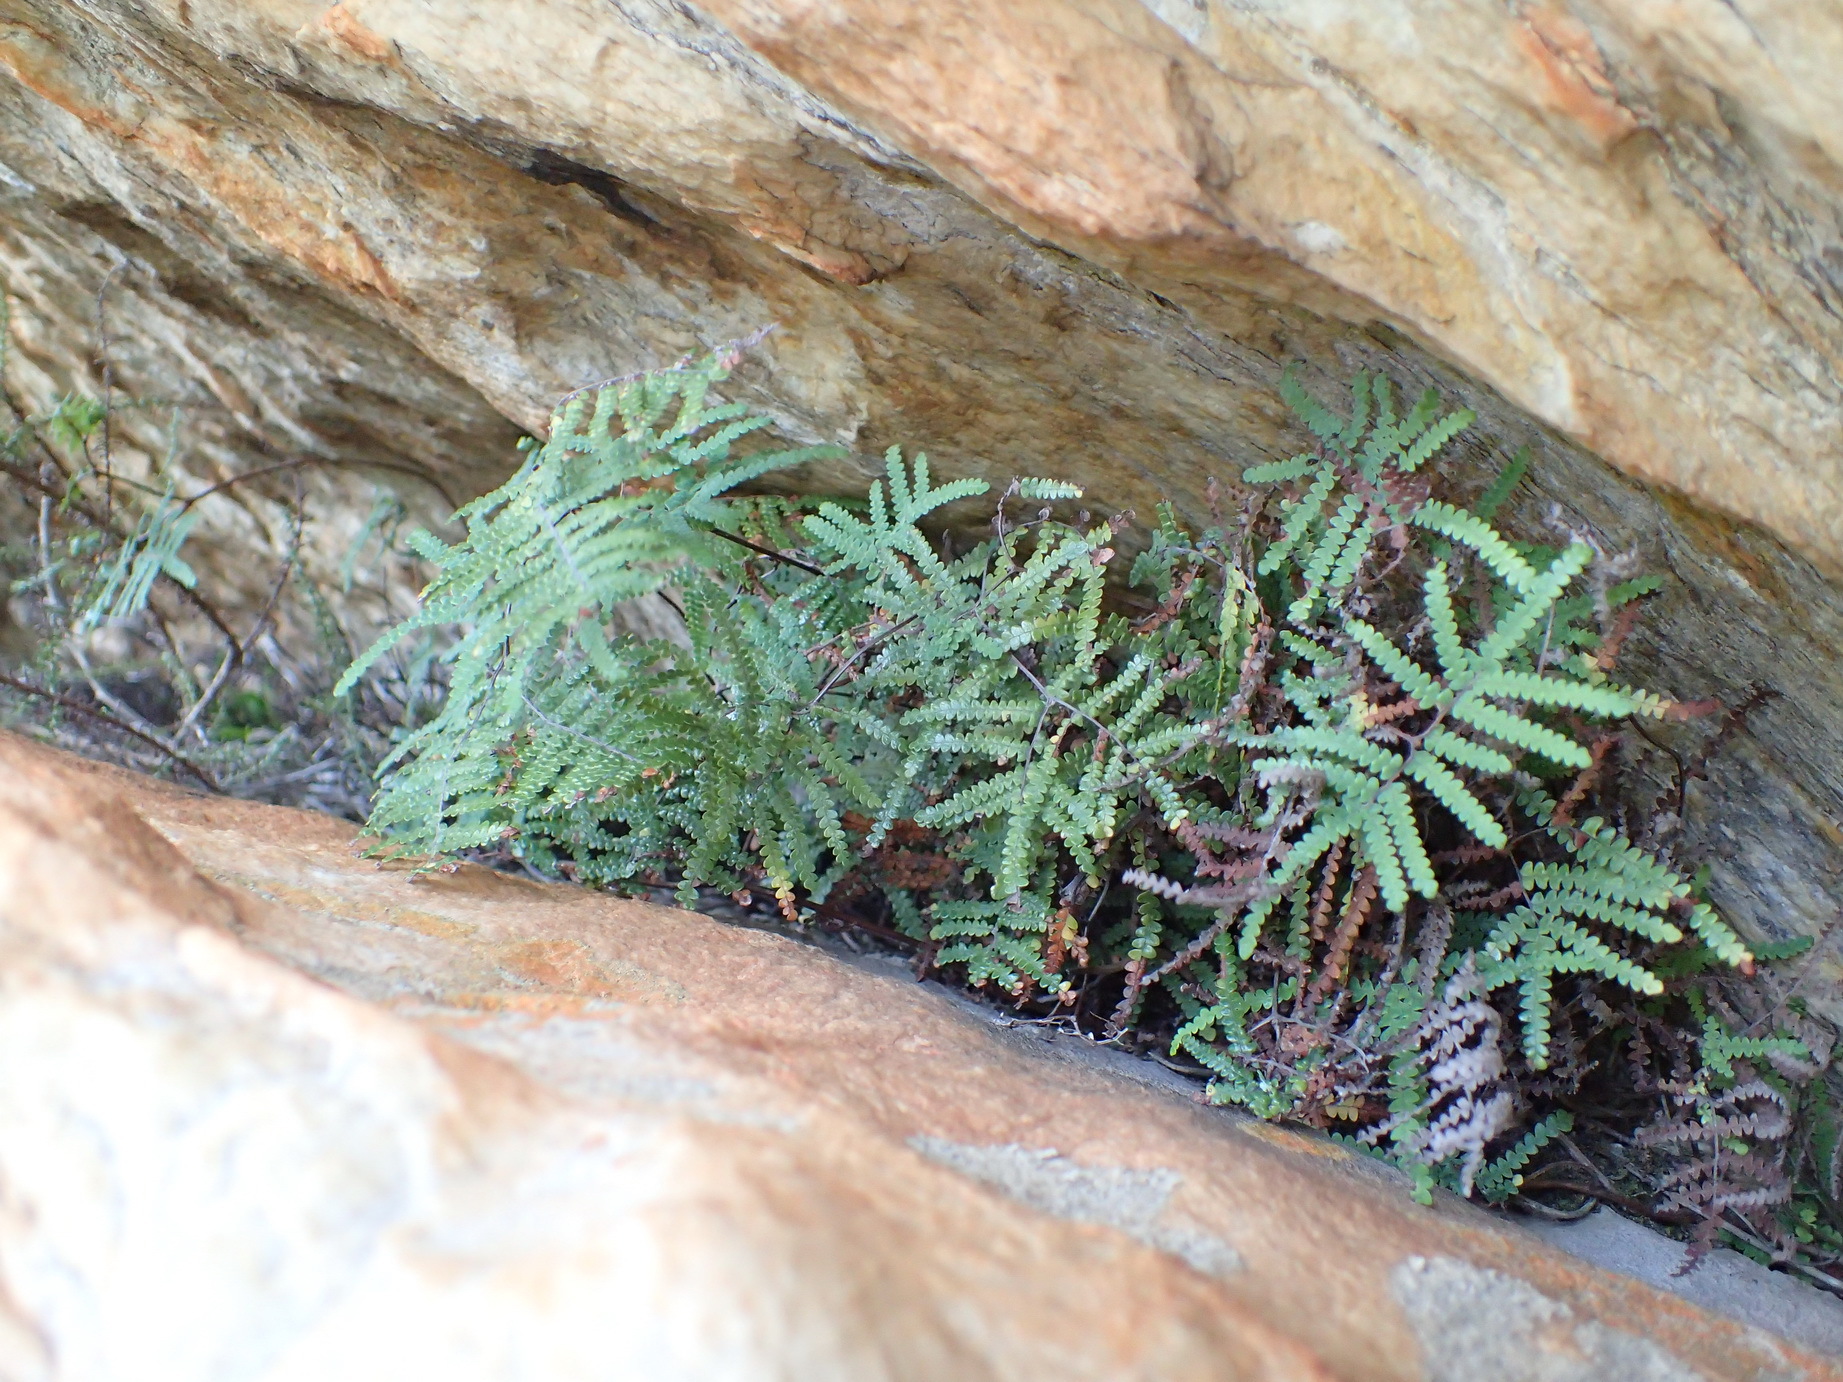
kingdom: Plantae
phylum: Tracheophyta
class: Polypodiopsida
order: Gleicheniales
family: Gleicheniaceae
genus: Gleichenia
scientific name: Gleichenia polypodioides
